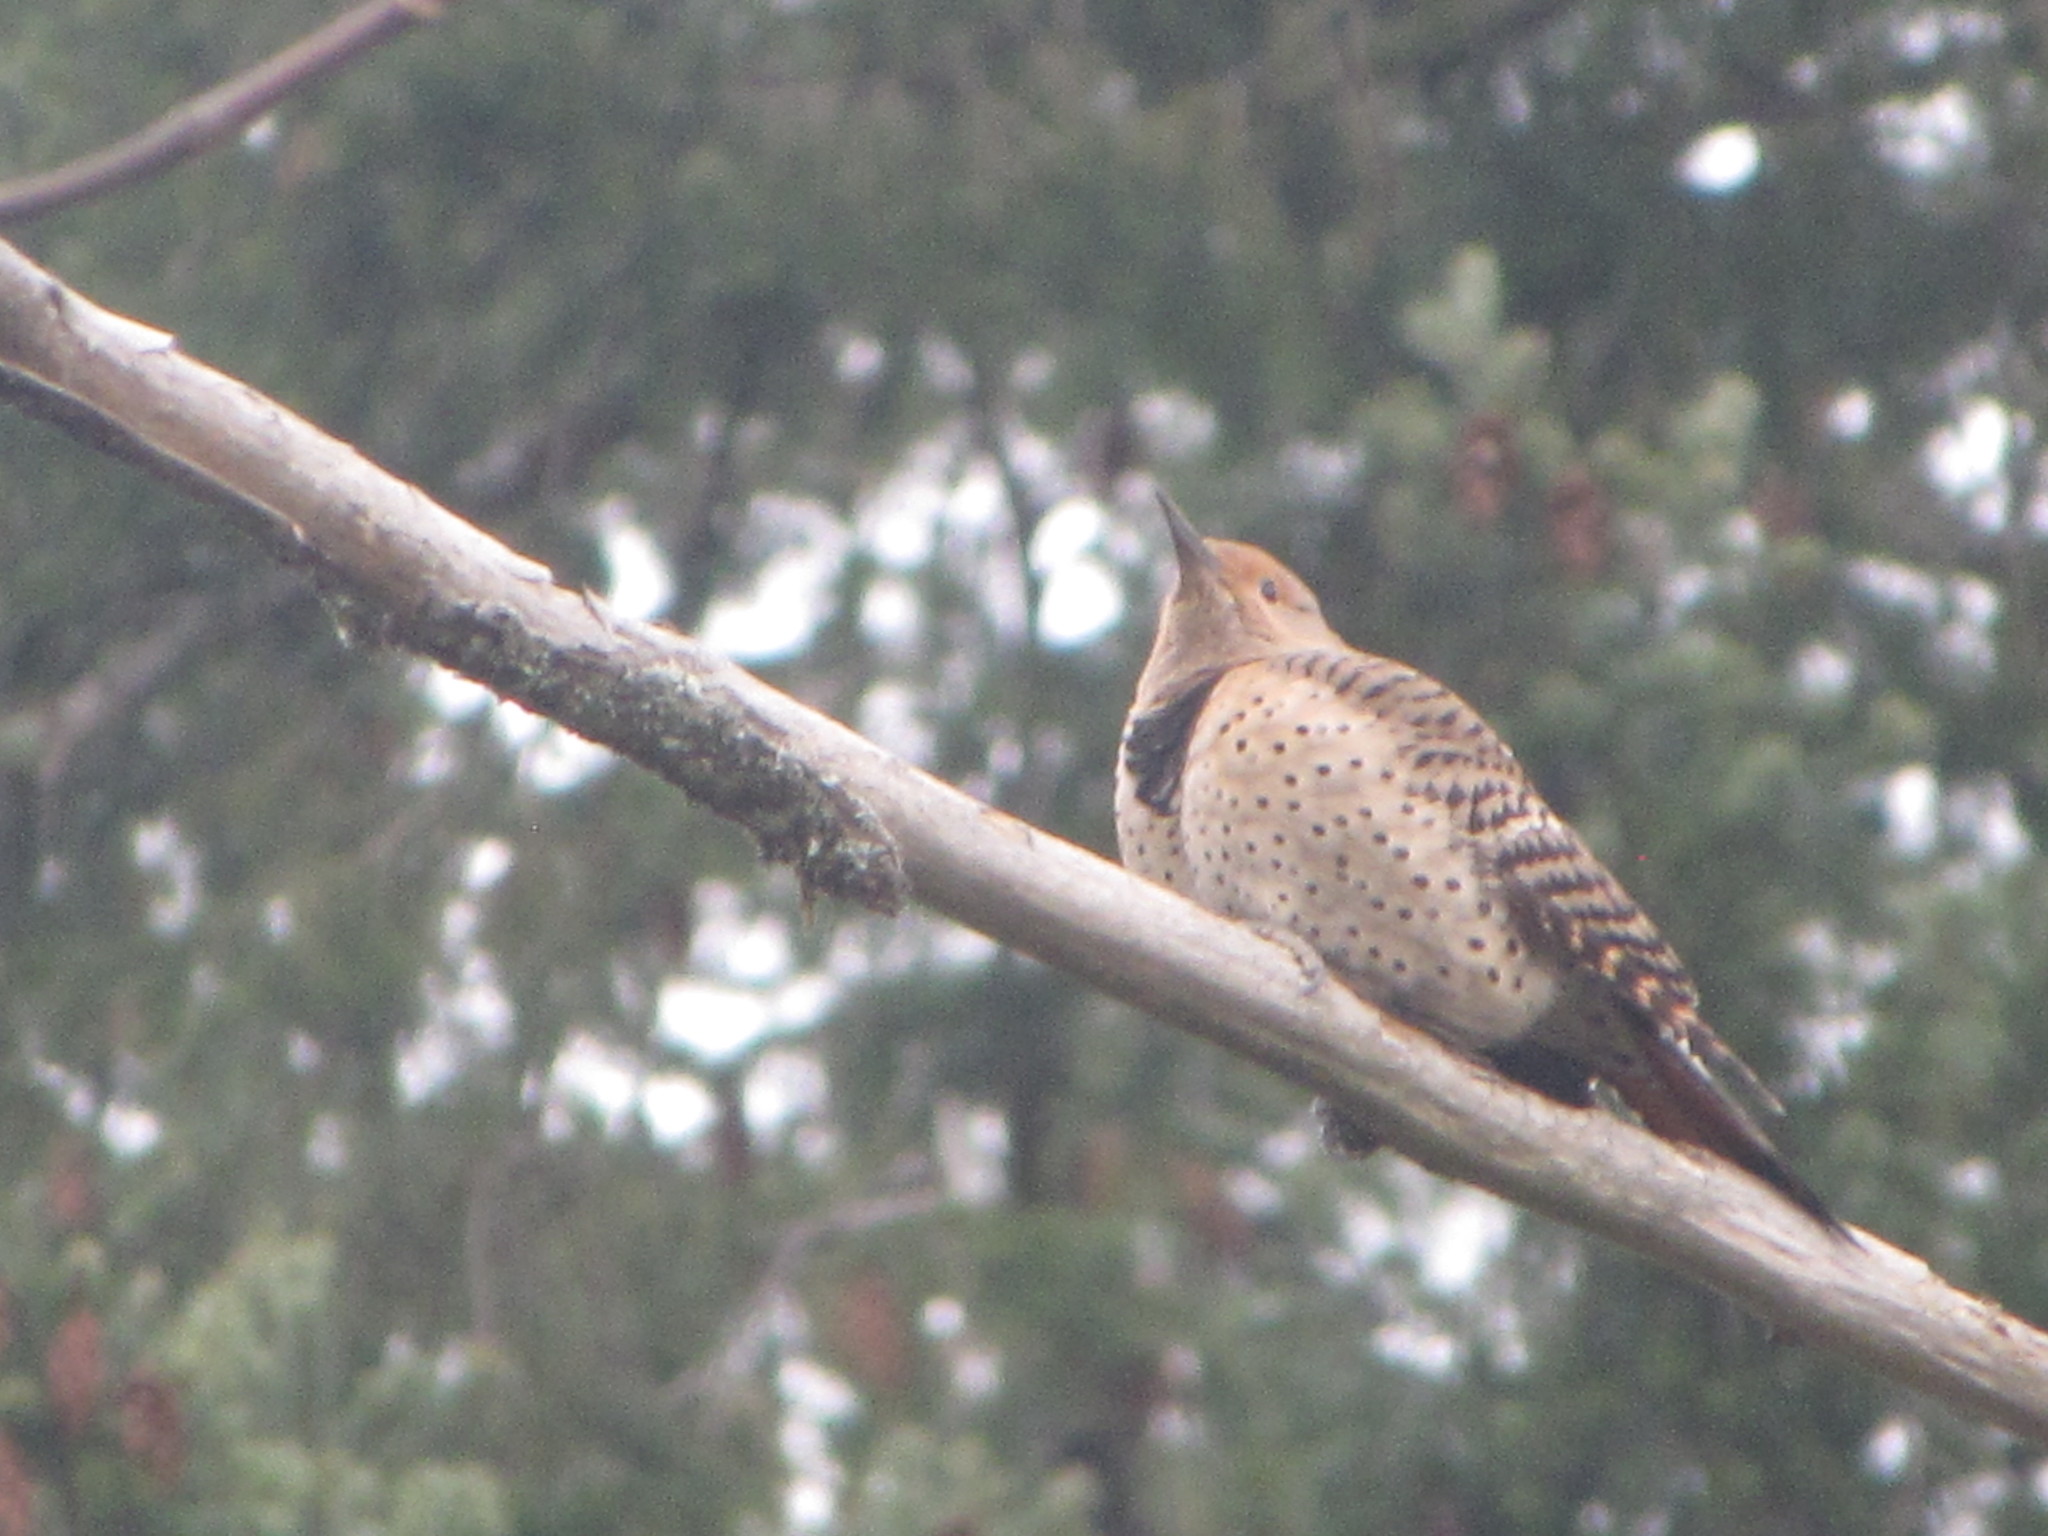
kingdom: Animalia
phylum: Chordata
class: Aves
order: Piciformes
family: Picidae
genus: Colaptes
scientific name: Colaptes auratus
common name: Northern flicker
